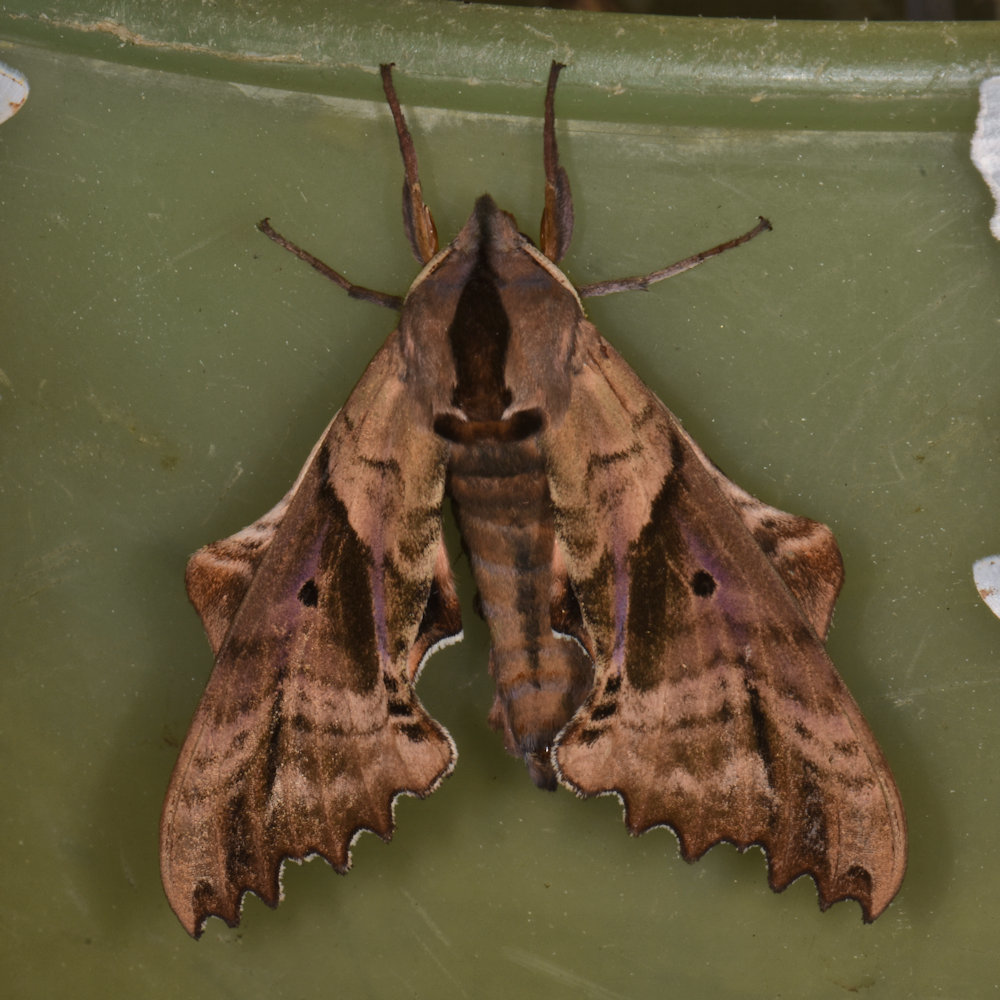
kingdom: Animalia
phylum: Arthropoda
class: Insecta
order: Lepidoptera
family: Sphingidae
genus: Paonias
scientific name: Paonias excaecata
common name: Blind-eyed sphinx
